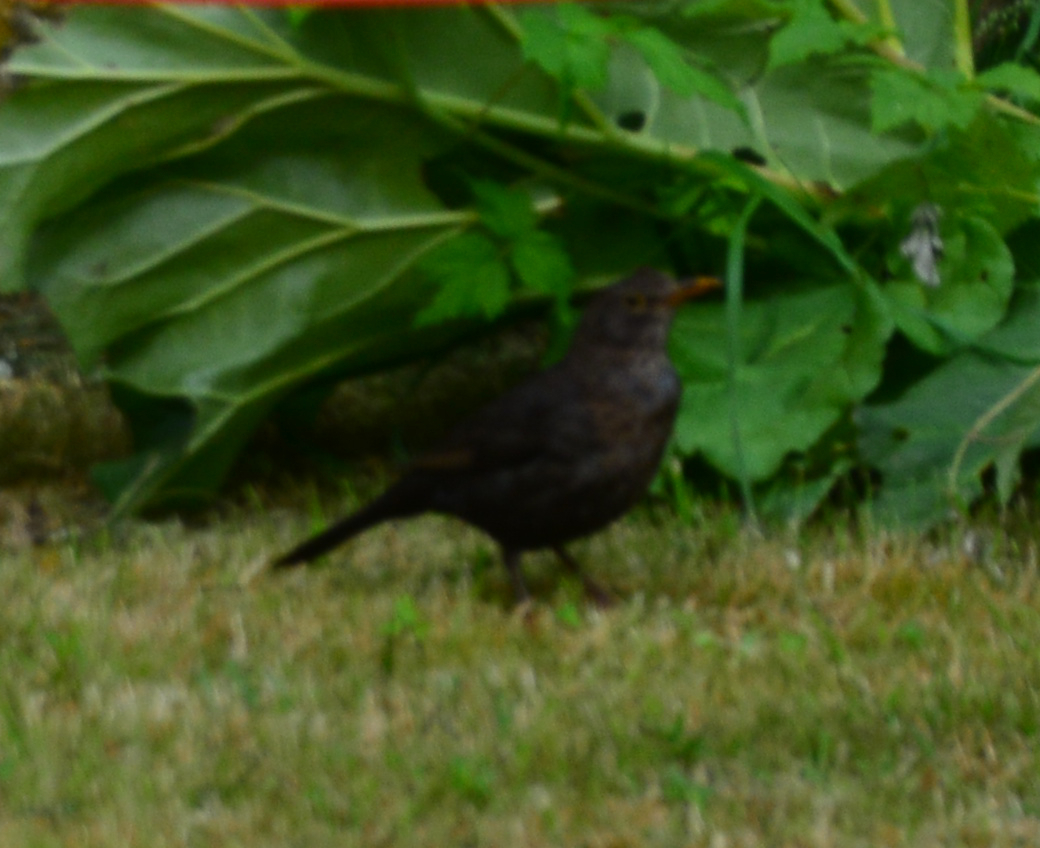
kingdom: Animalia
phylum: Chordata
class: Aves
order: Passeriformes
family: Turdidae
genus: Turdus
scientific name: Turdus merula
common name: Common blackbird
